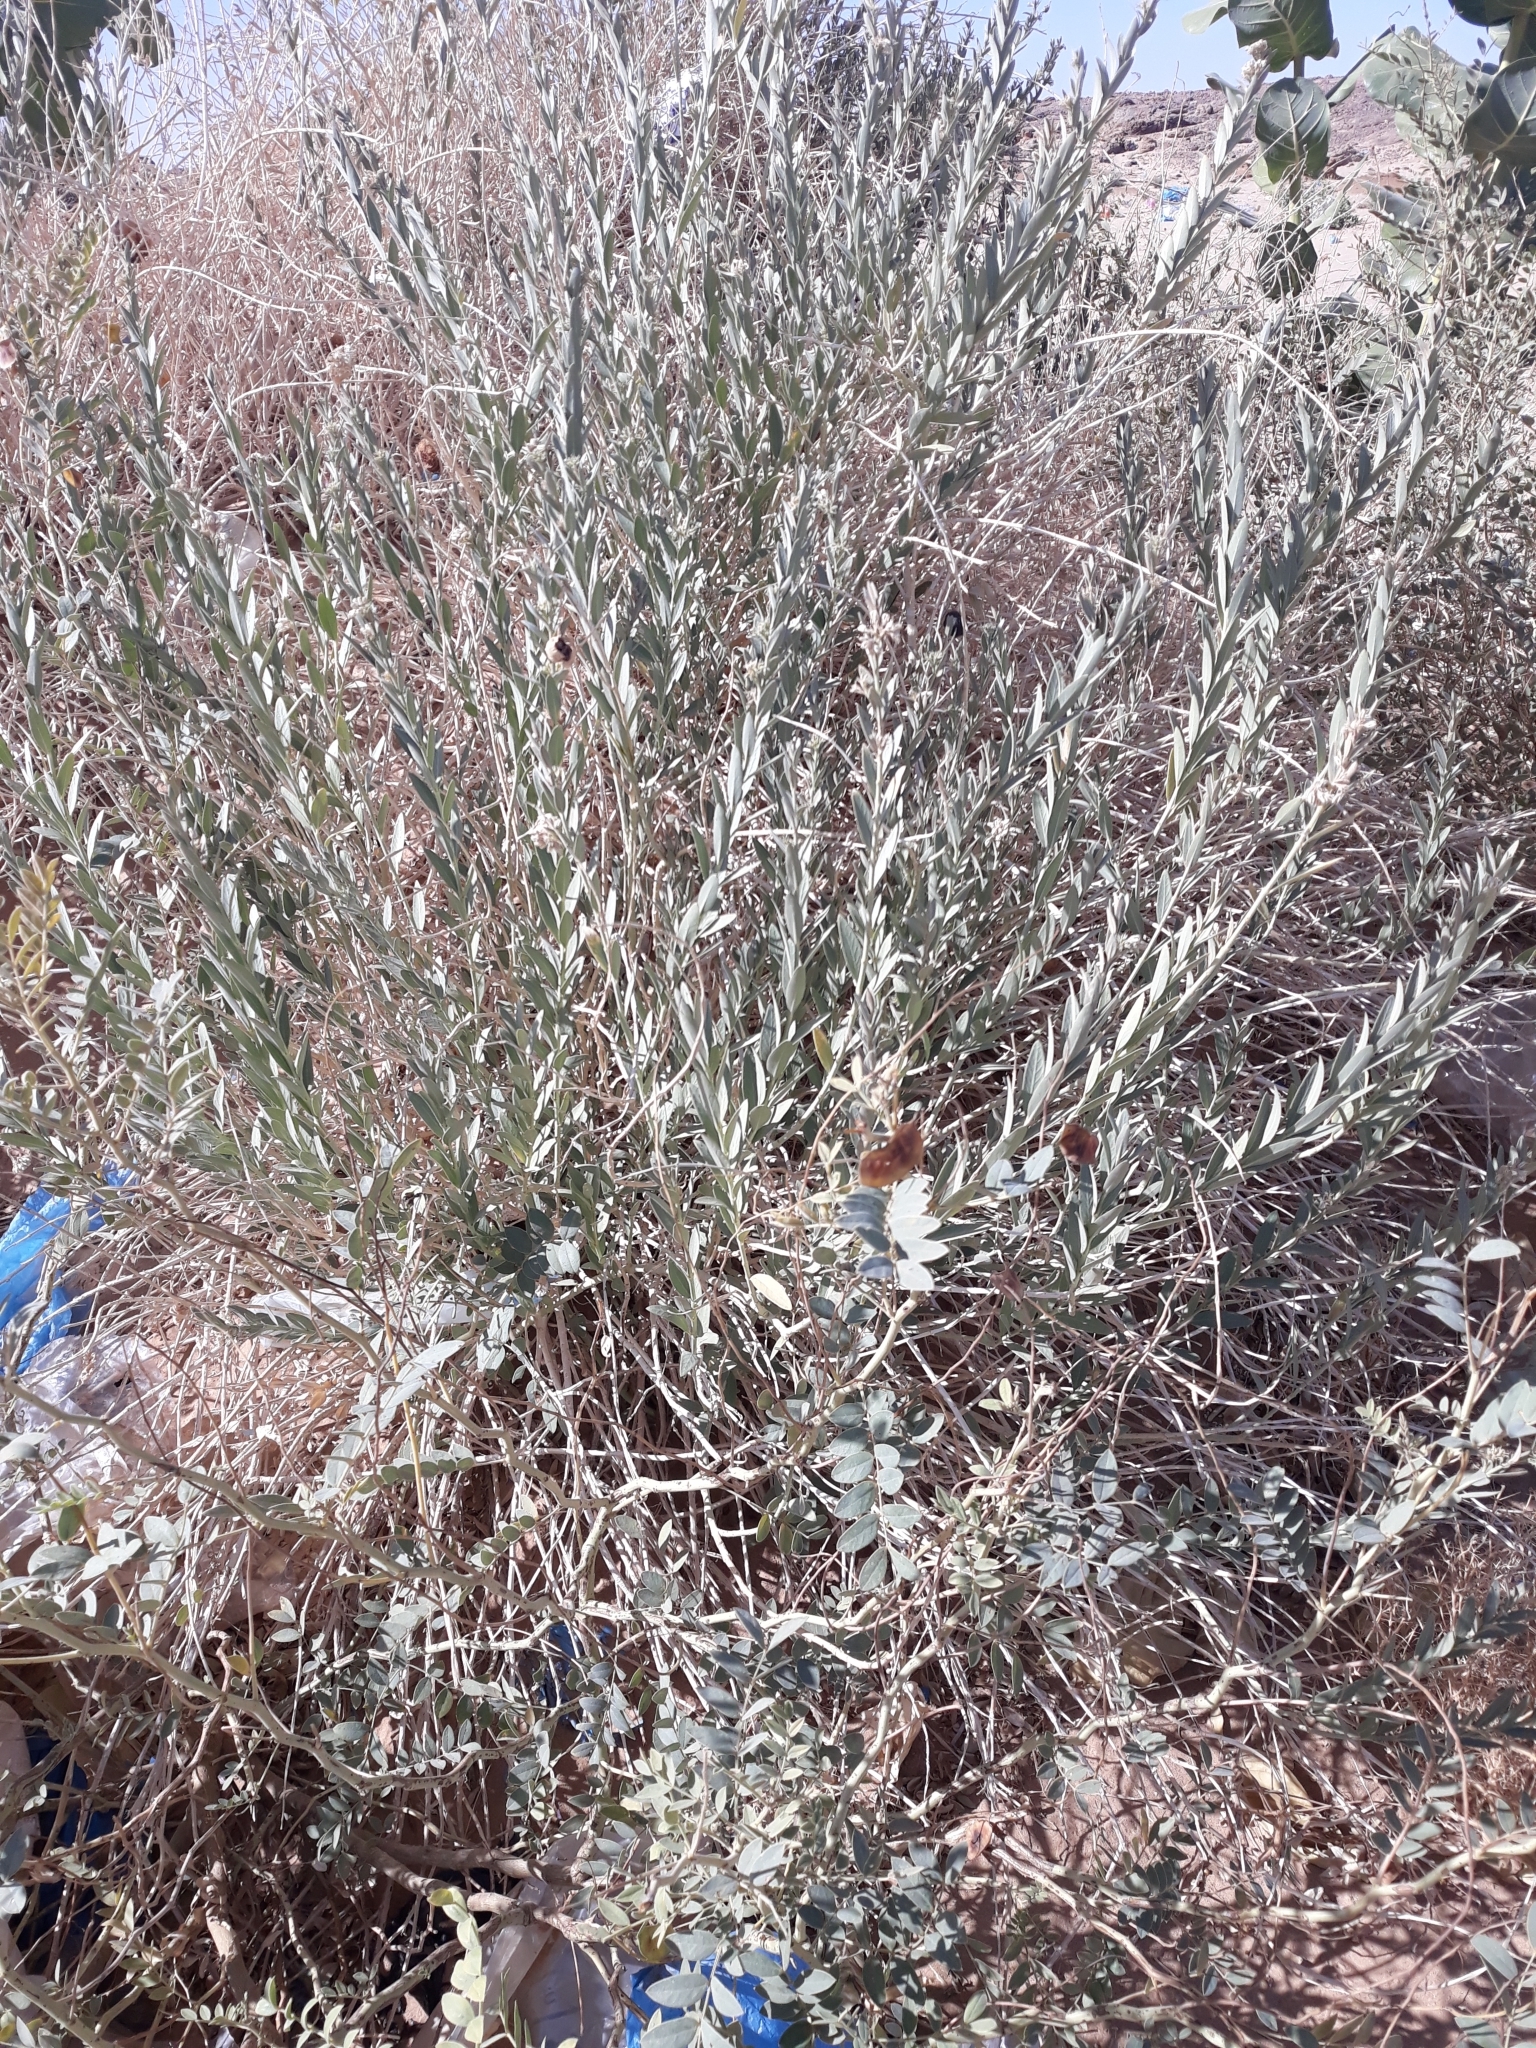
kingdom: Plantae
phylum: Tracheophyta
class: Magnoliopsida
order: Gentianales
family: Apocynaceae
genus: Solenostemma
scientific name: Solenostemma oleifolium
